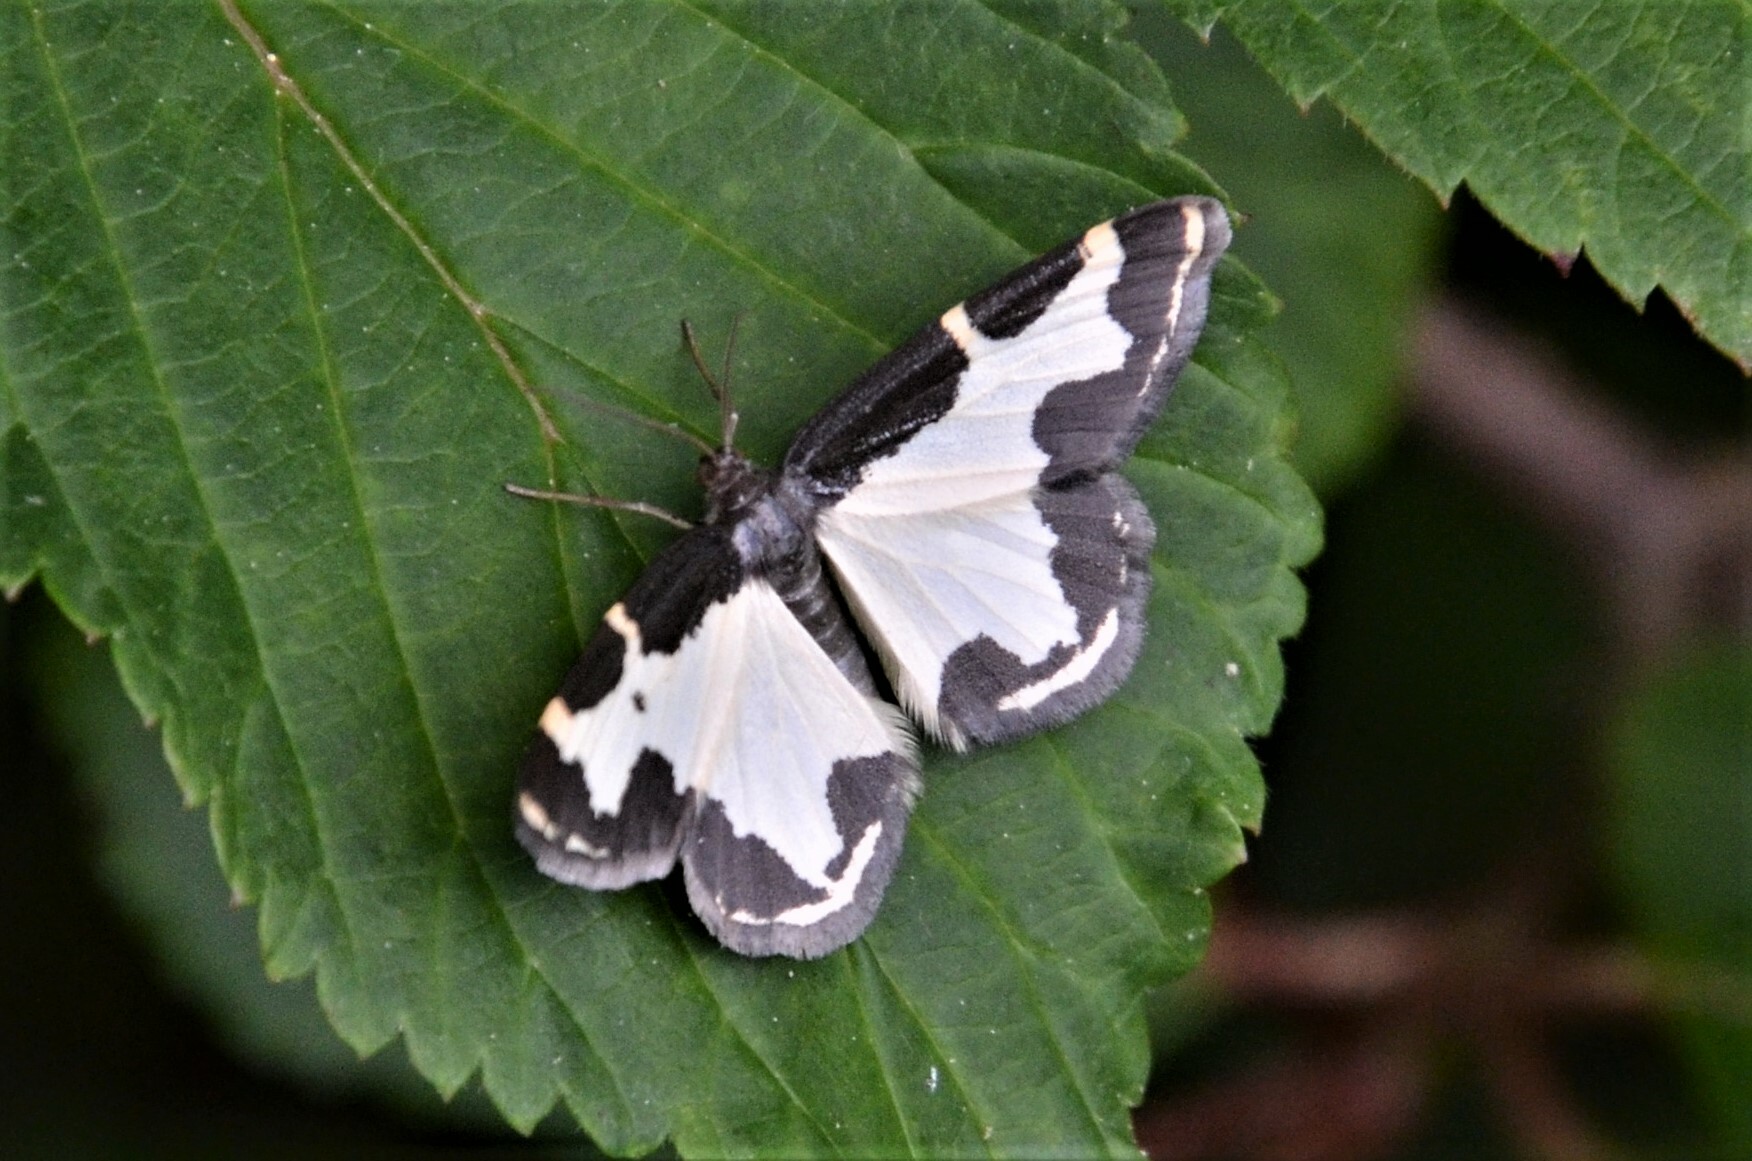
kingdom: Animalia
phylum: Arthropoda
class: Insecta
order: Lepidoptera
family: Geometridae
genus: Lomaspilis
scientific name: Lomaspilis marginata
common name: Clouded border
